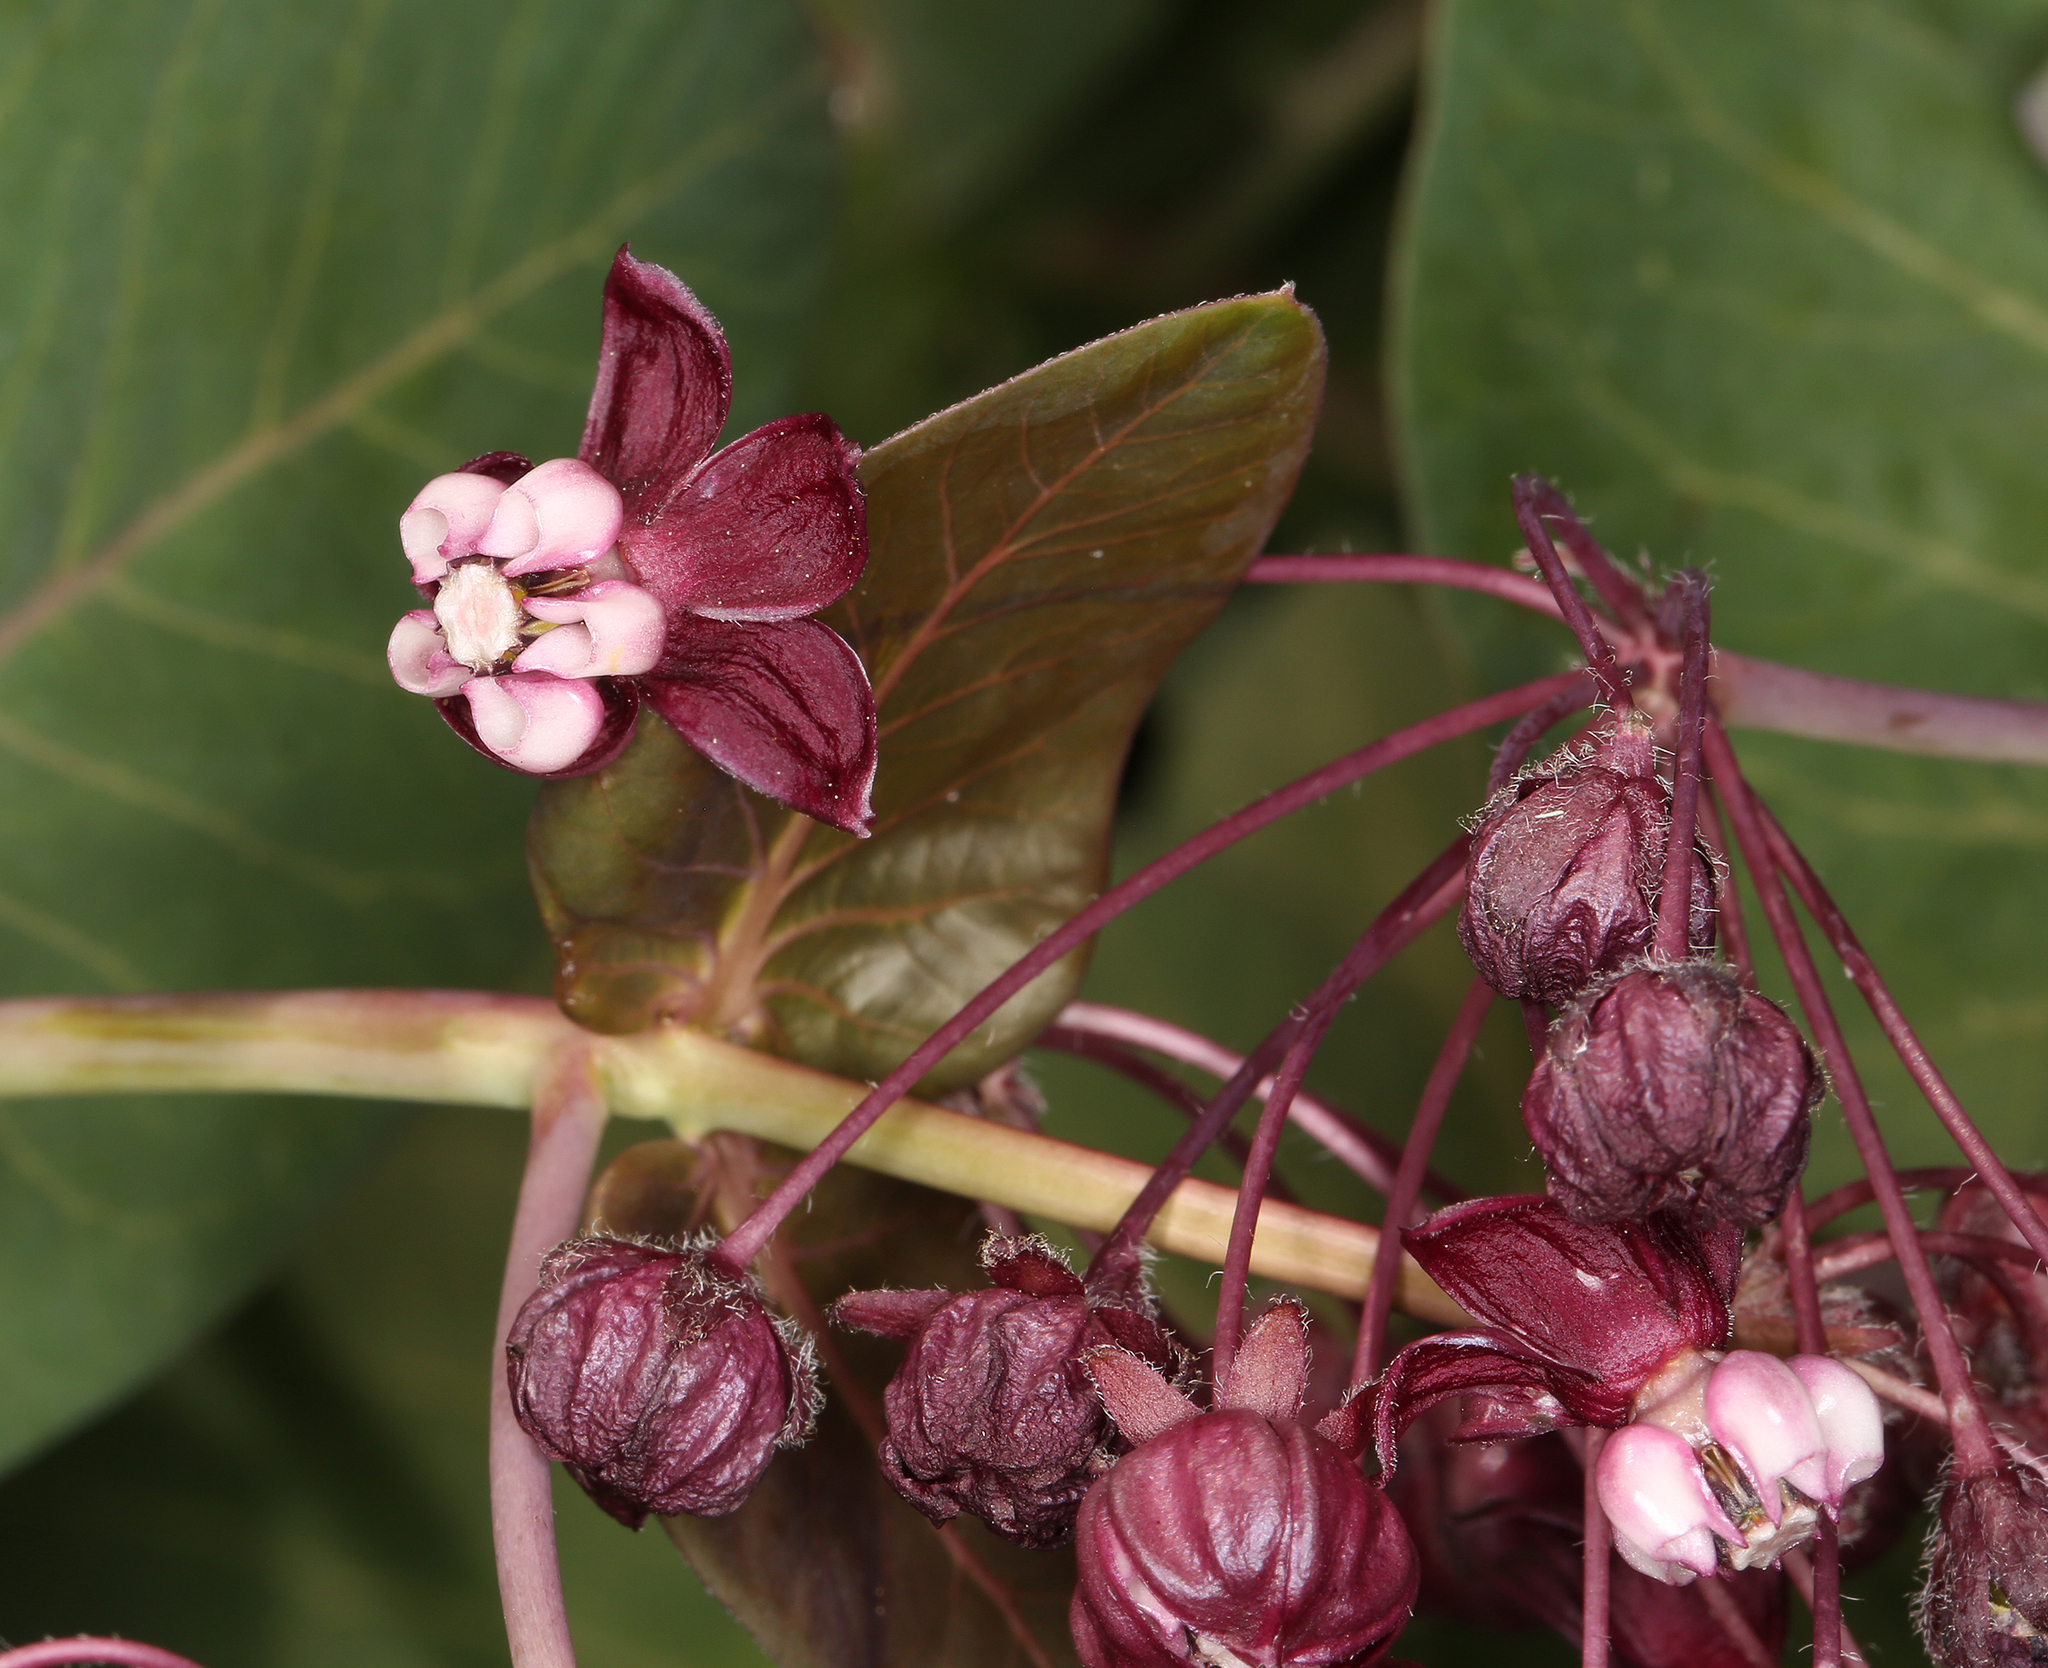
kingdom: Plantae
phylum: Tracheophyta
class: Magnoliopsida
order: Gentianales
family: Apocynaceae
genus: Asclepias
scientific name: Asclepias cordifolia
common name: Purple milkweed
